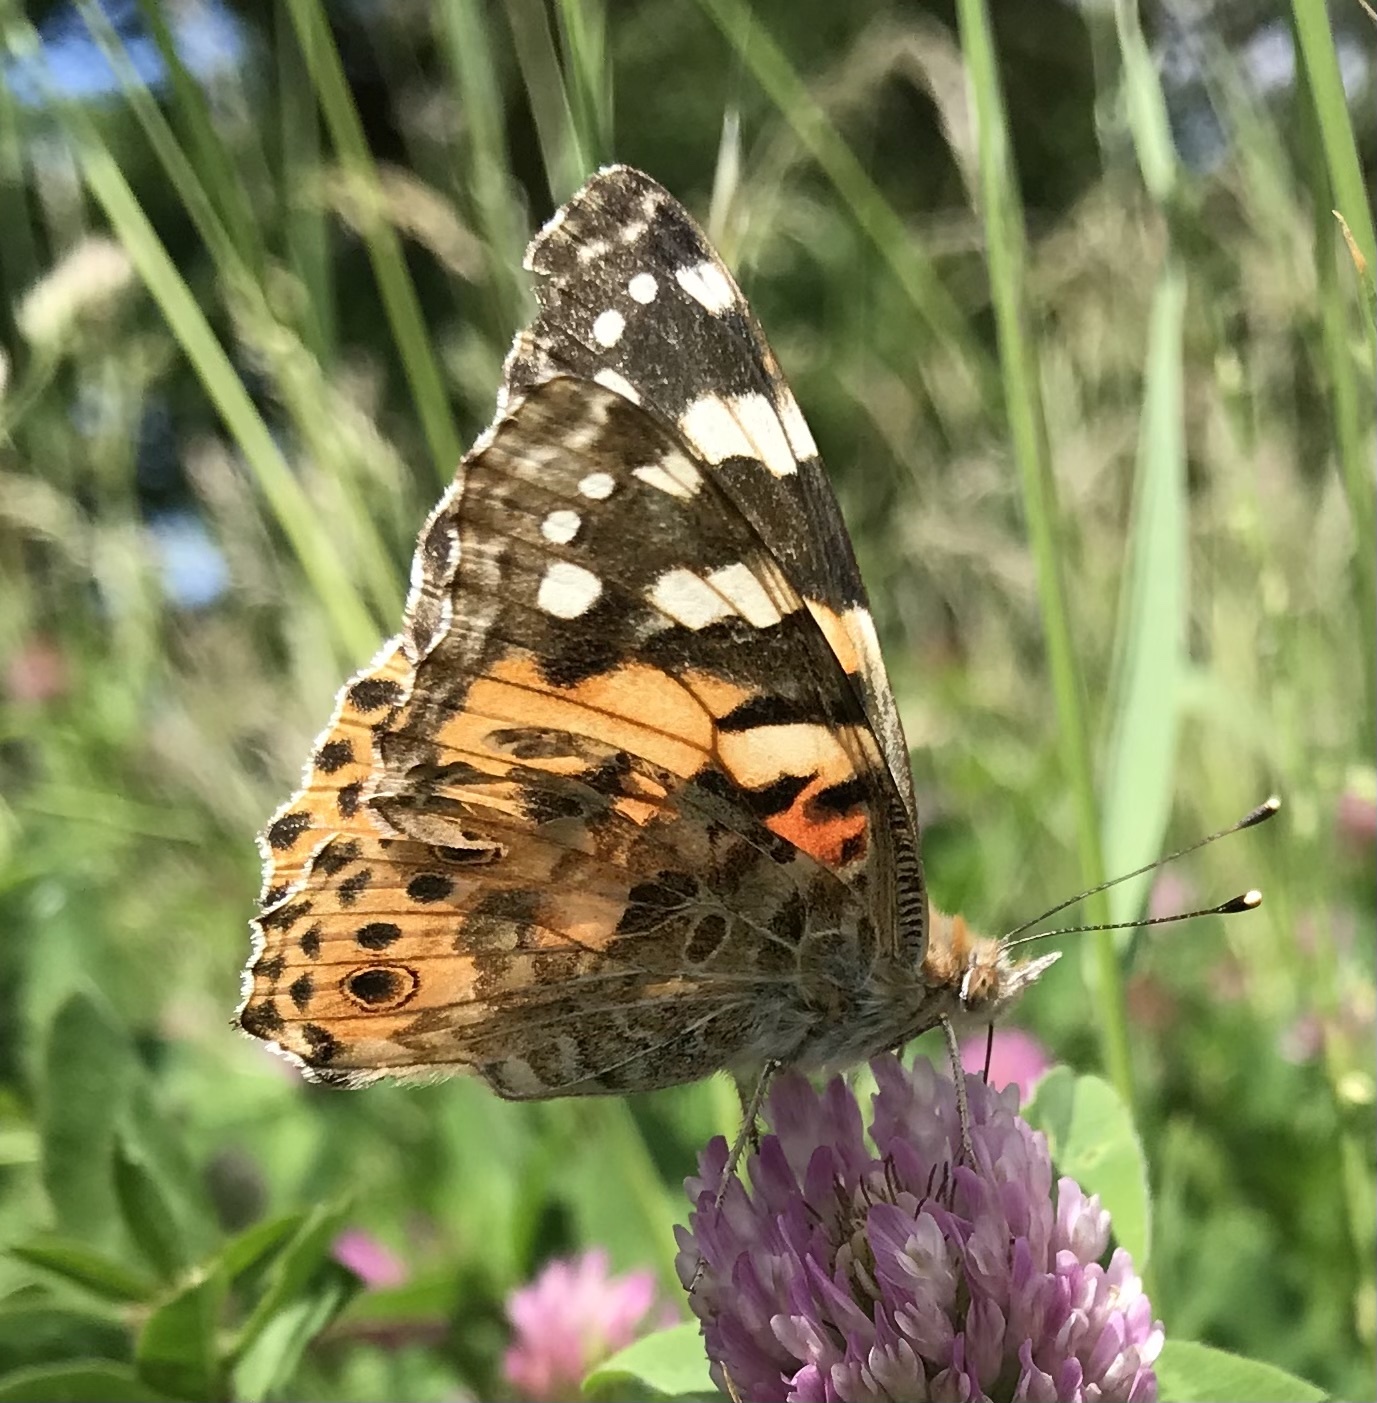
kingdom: Animalia
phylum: Arthropoda
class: Insecta
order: Lepidoptera
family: Nymphalidae
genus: Vanessa
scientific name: Vanessa cardui
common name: Painted lady
